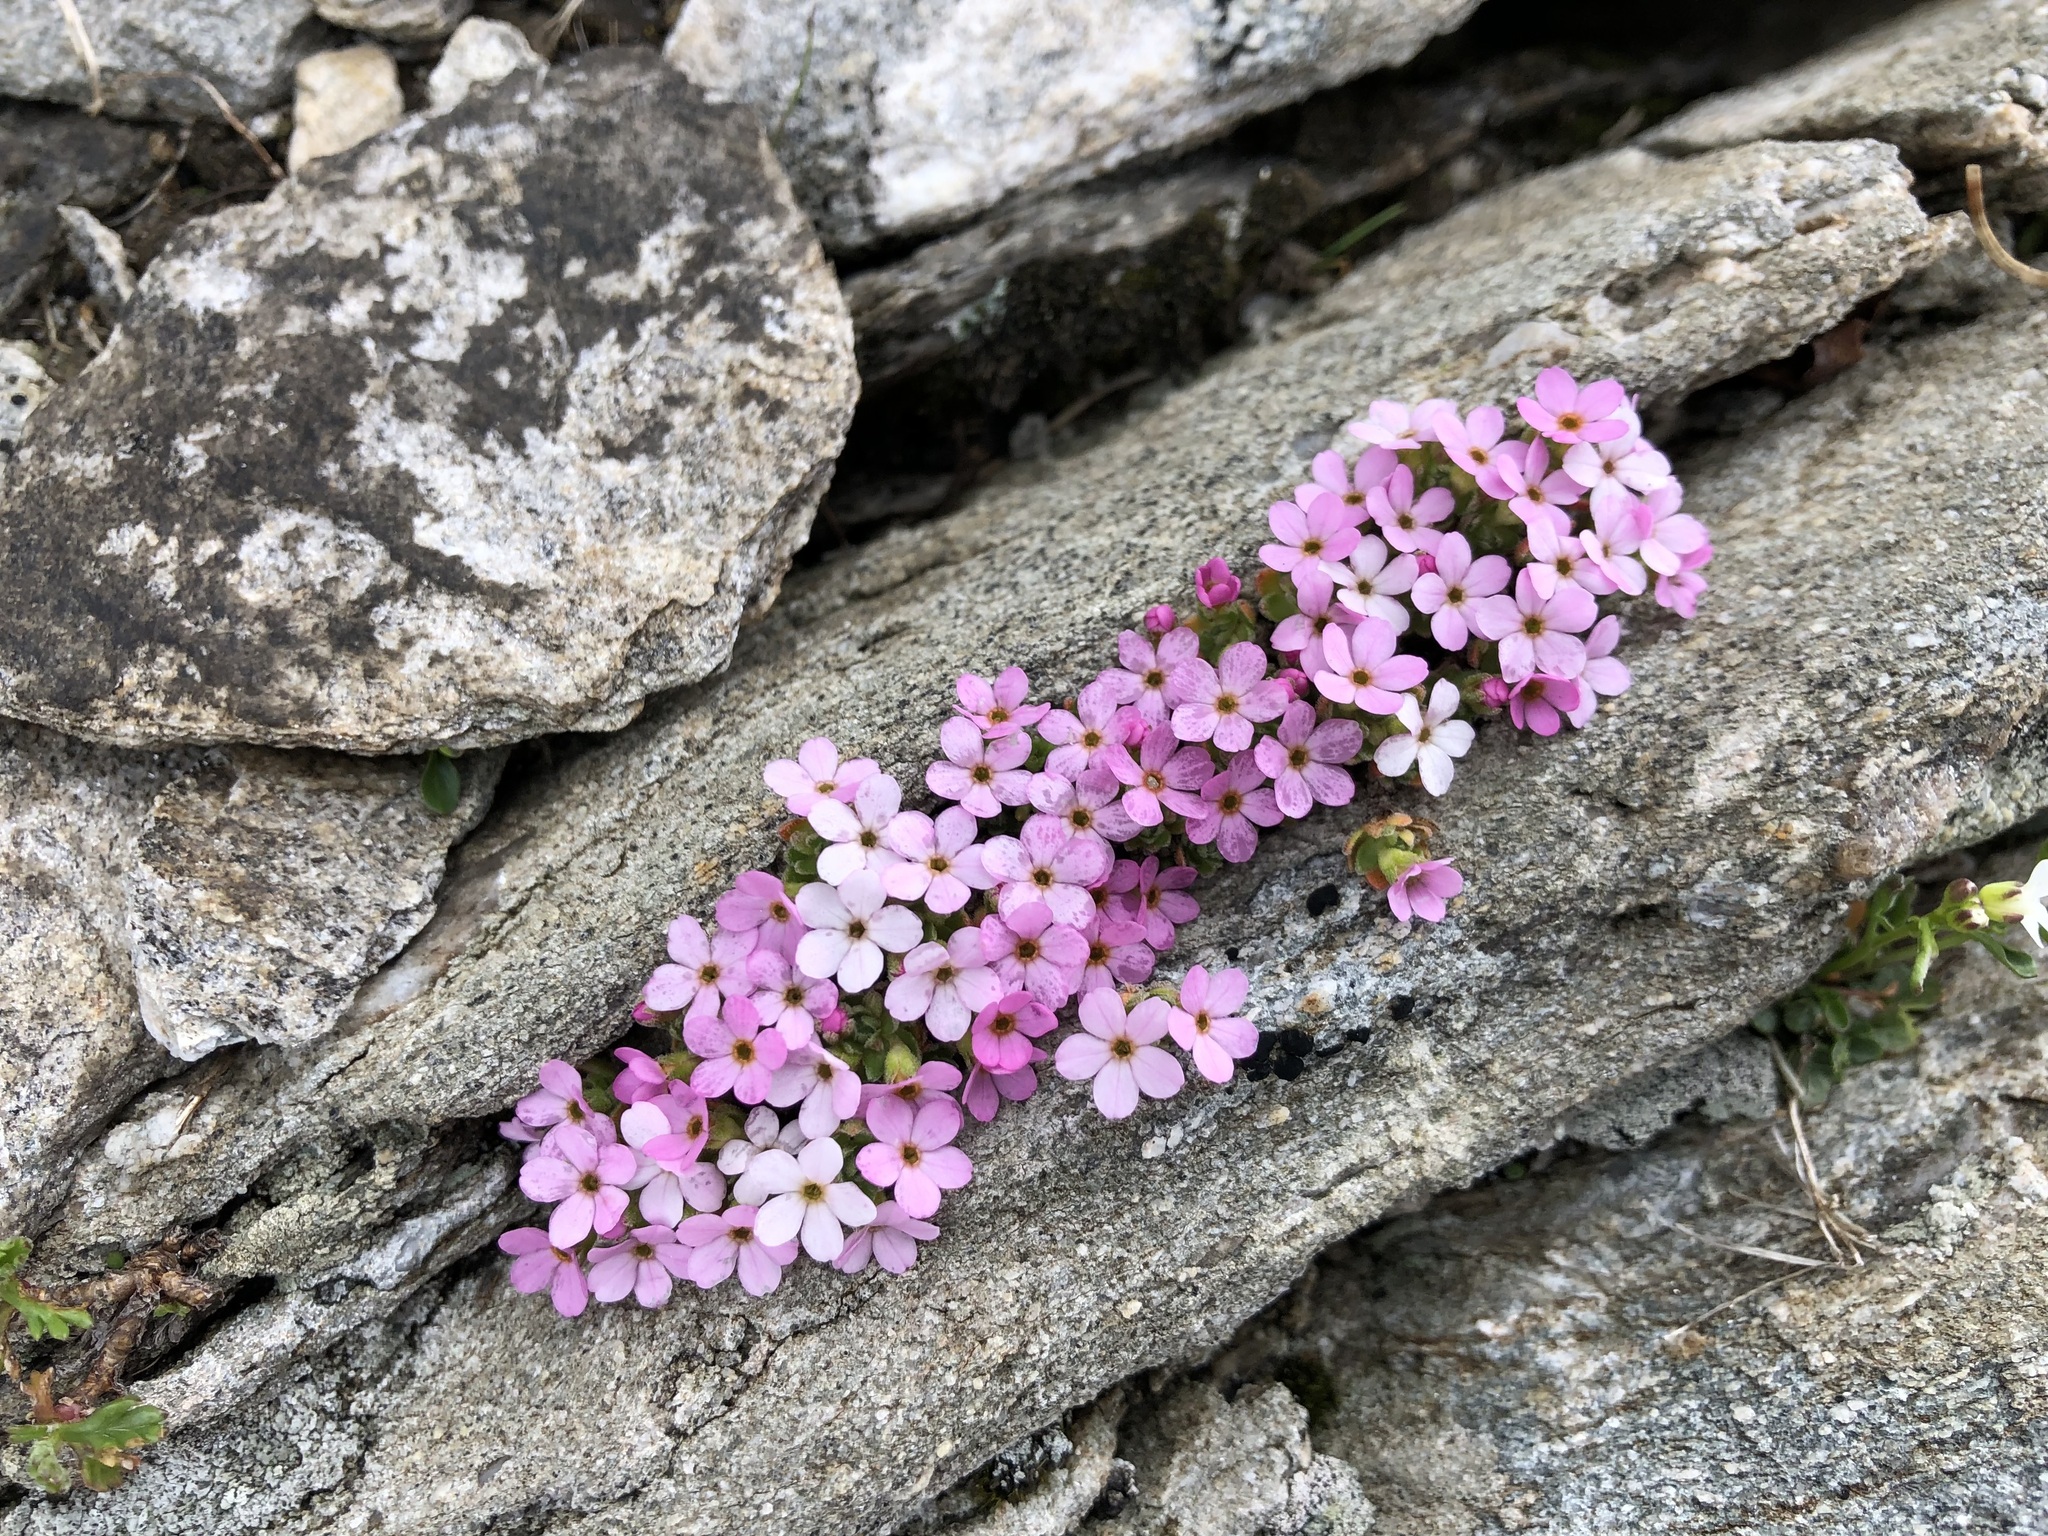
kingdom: Plantae
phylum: Tracheophyta
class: Magnoliopsida
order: Ericales
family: Primulaceae
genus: Androsace
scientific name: Androsace alpina
